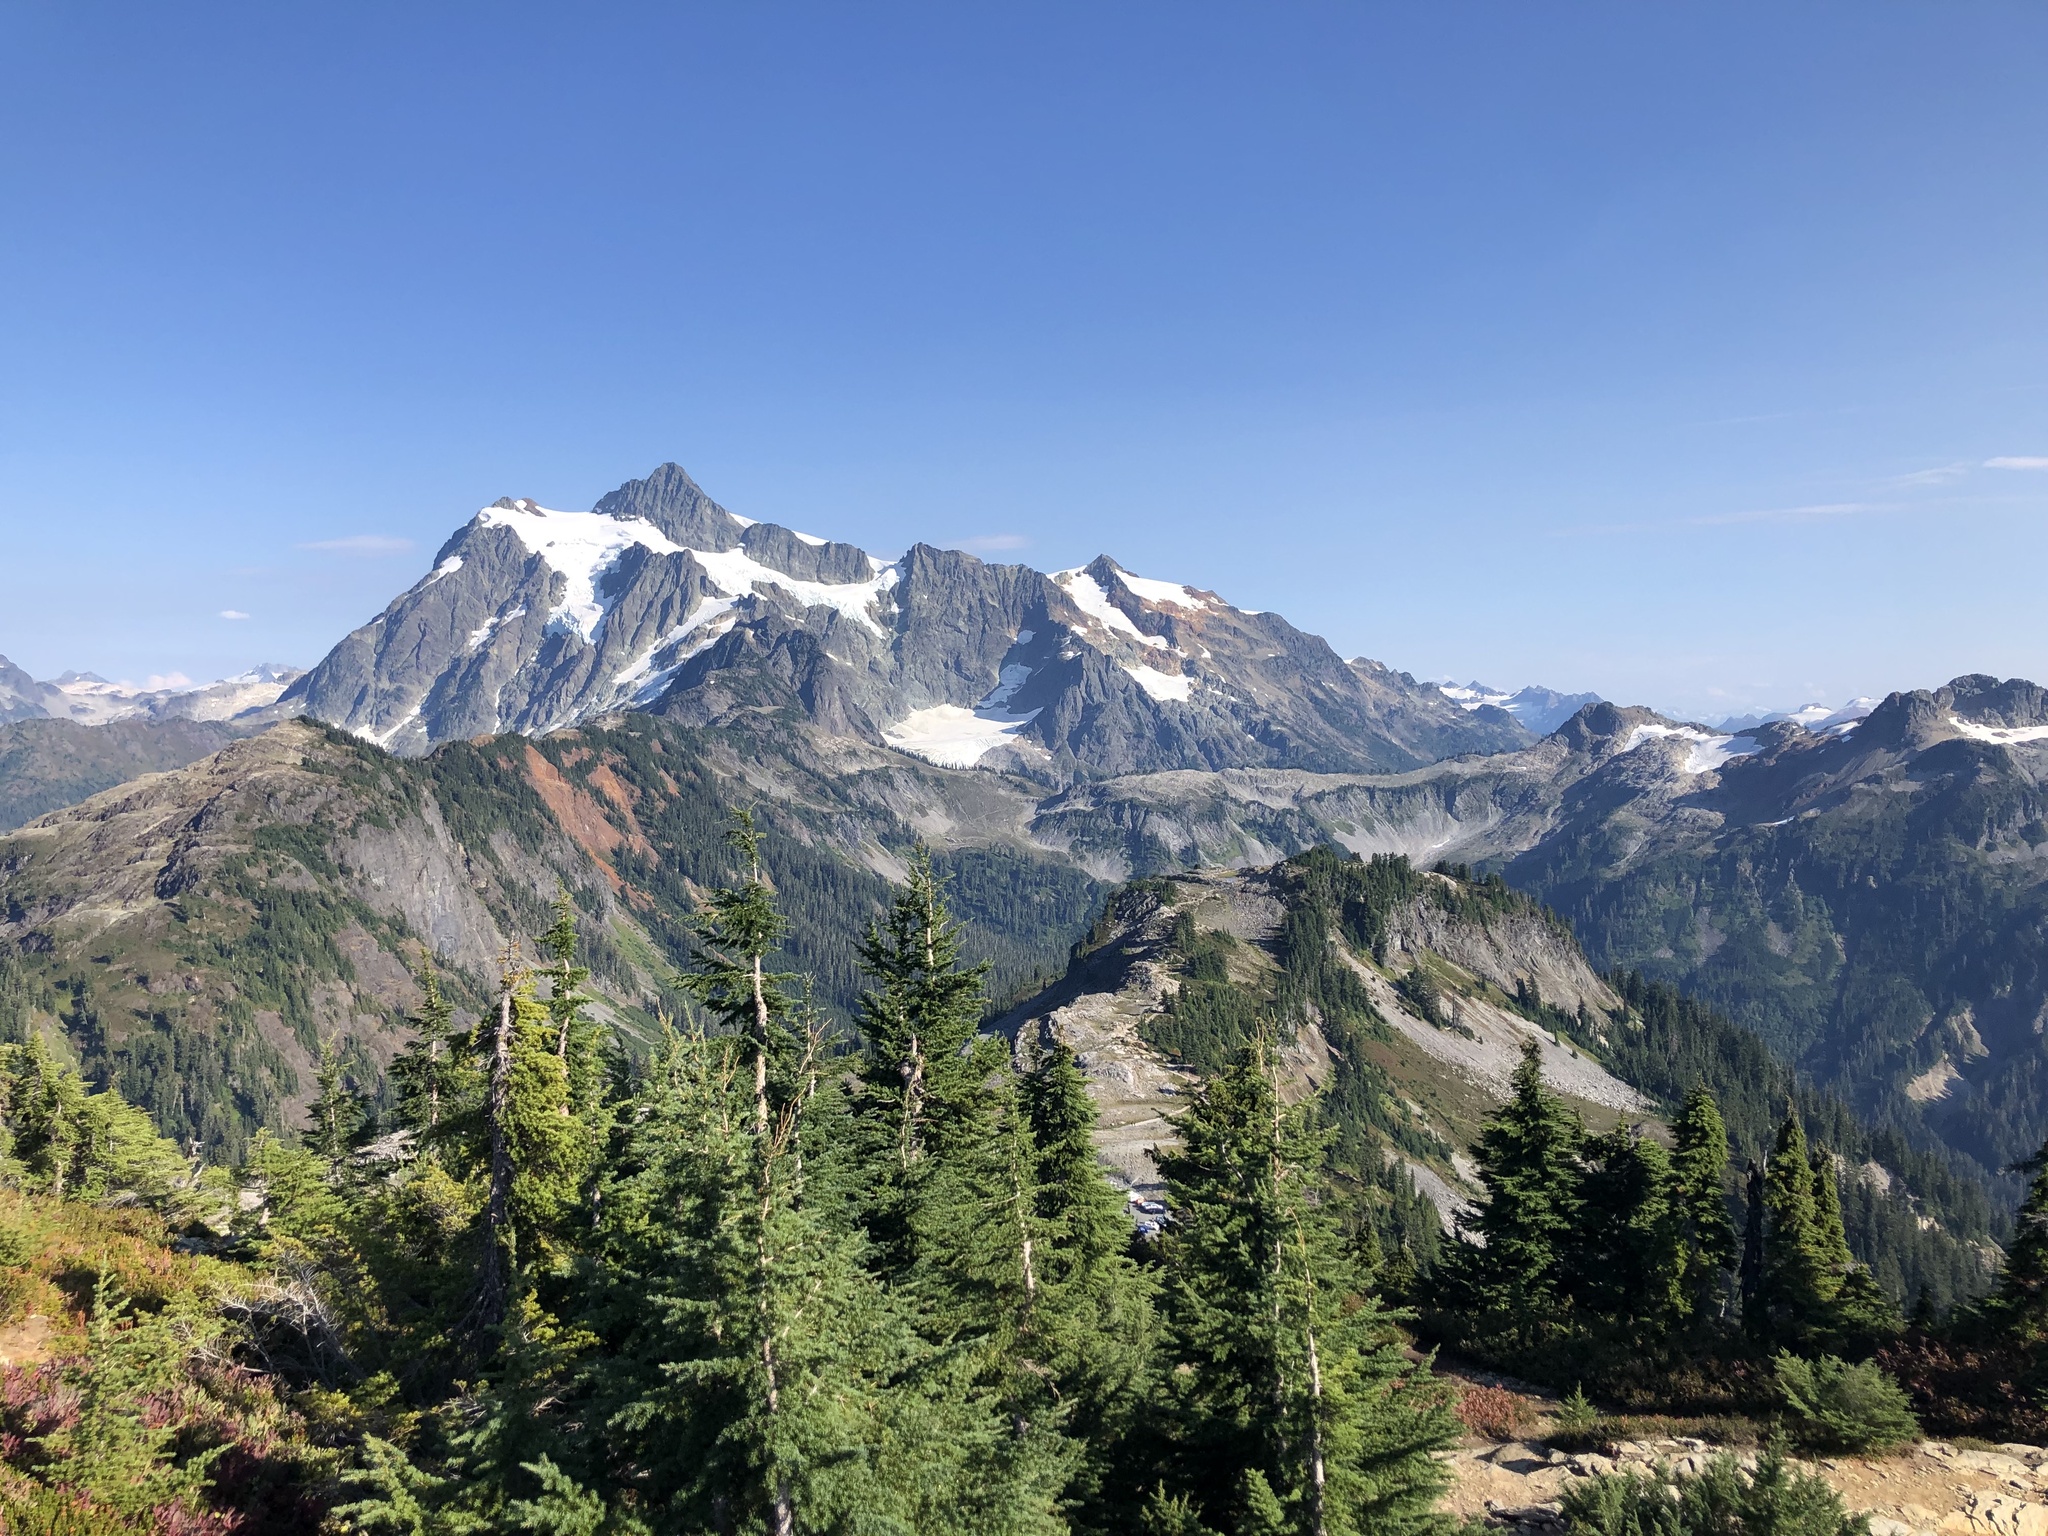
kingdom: Plantae
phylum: Tracheophyta
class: Pinopsida
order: Pinales
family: Pinaceae
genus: Tsuga
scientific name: Tsuga mertensiana
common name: Mountain hemlock
